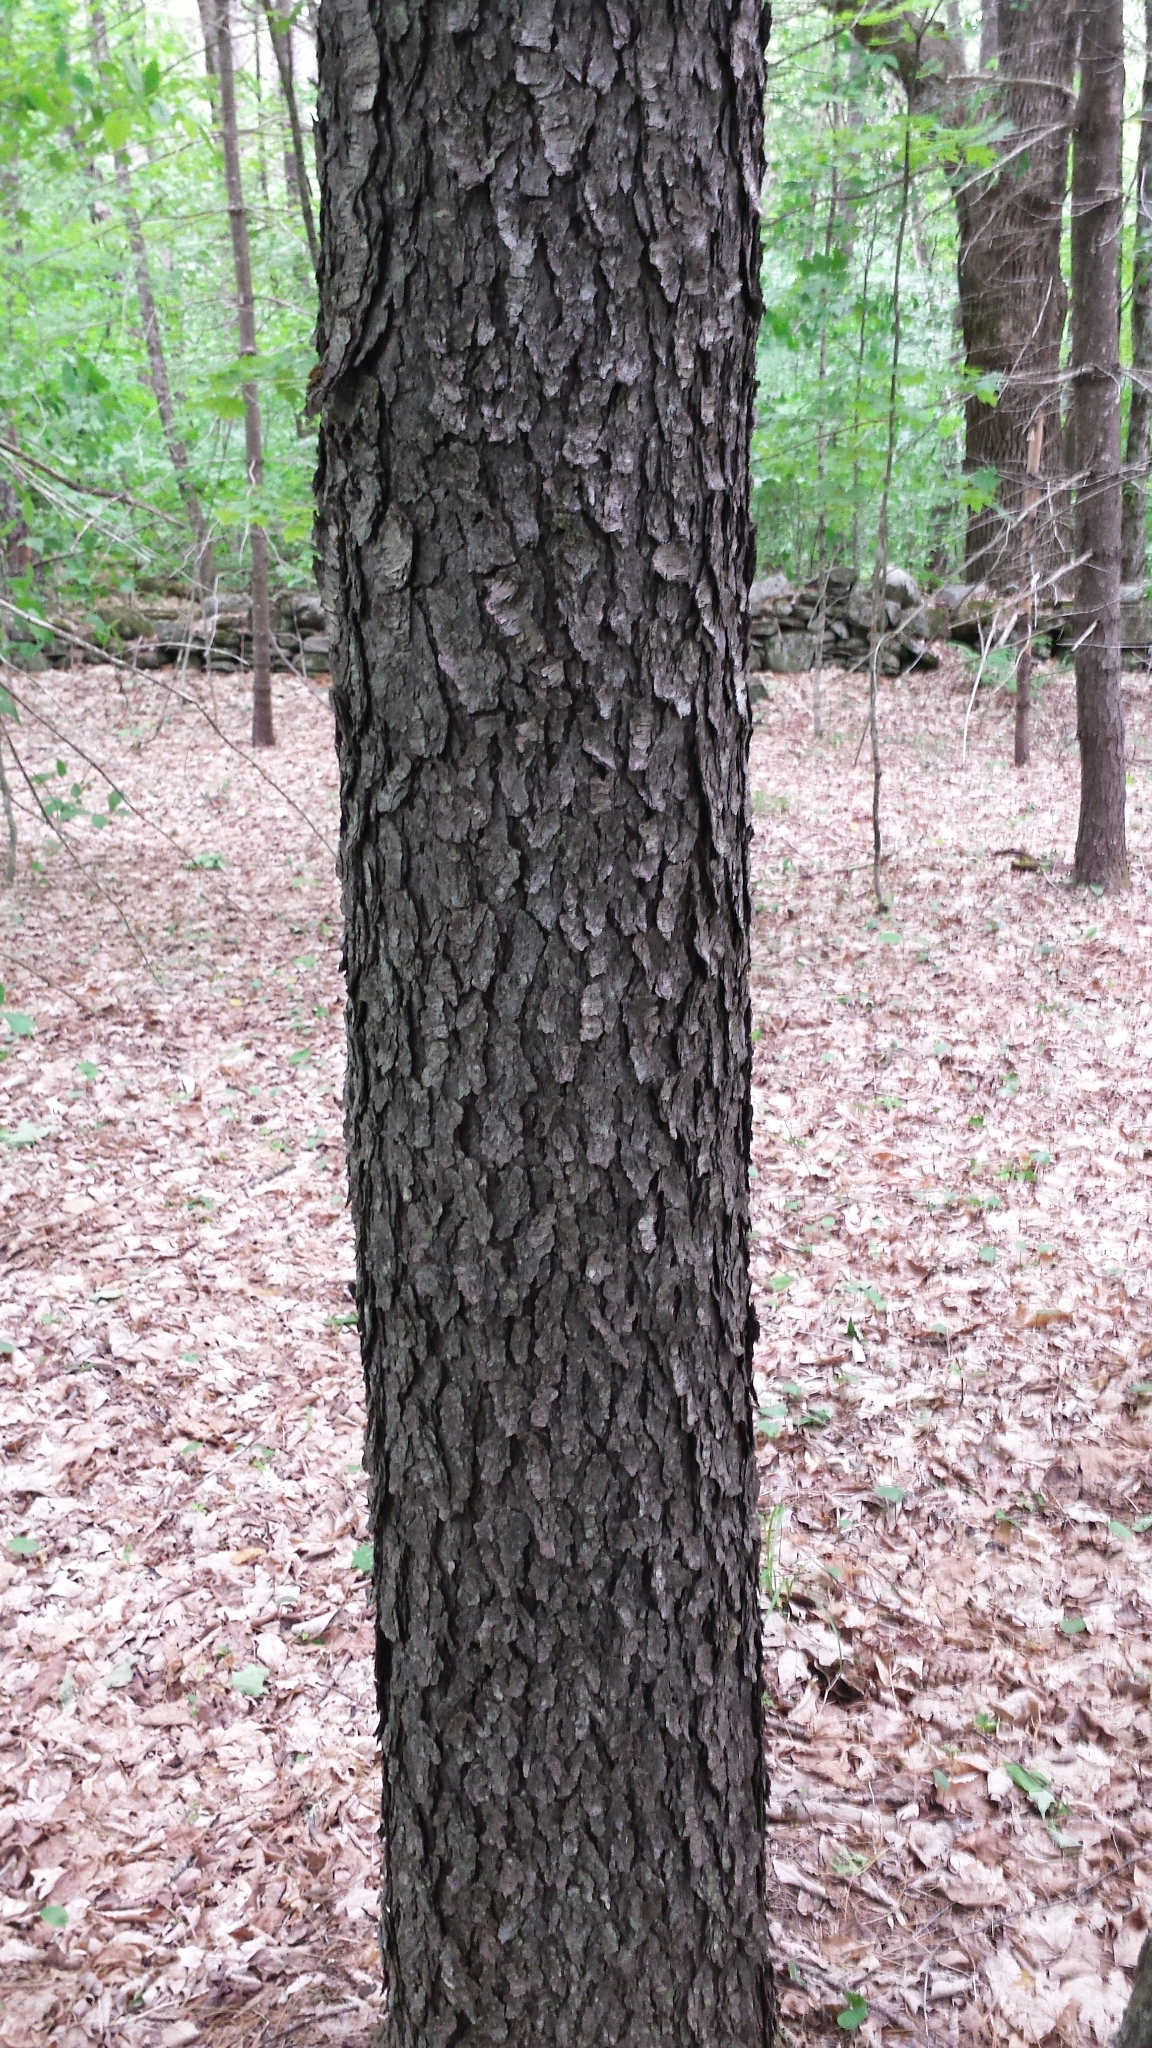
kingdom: Plantae
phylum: Tracheophyta
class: Magnoliopsida
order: Rosales
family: Rosaceae
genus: Prunus
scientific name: Prunus serotina
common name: Black cherry
